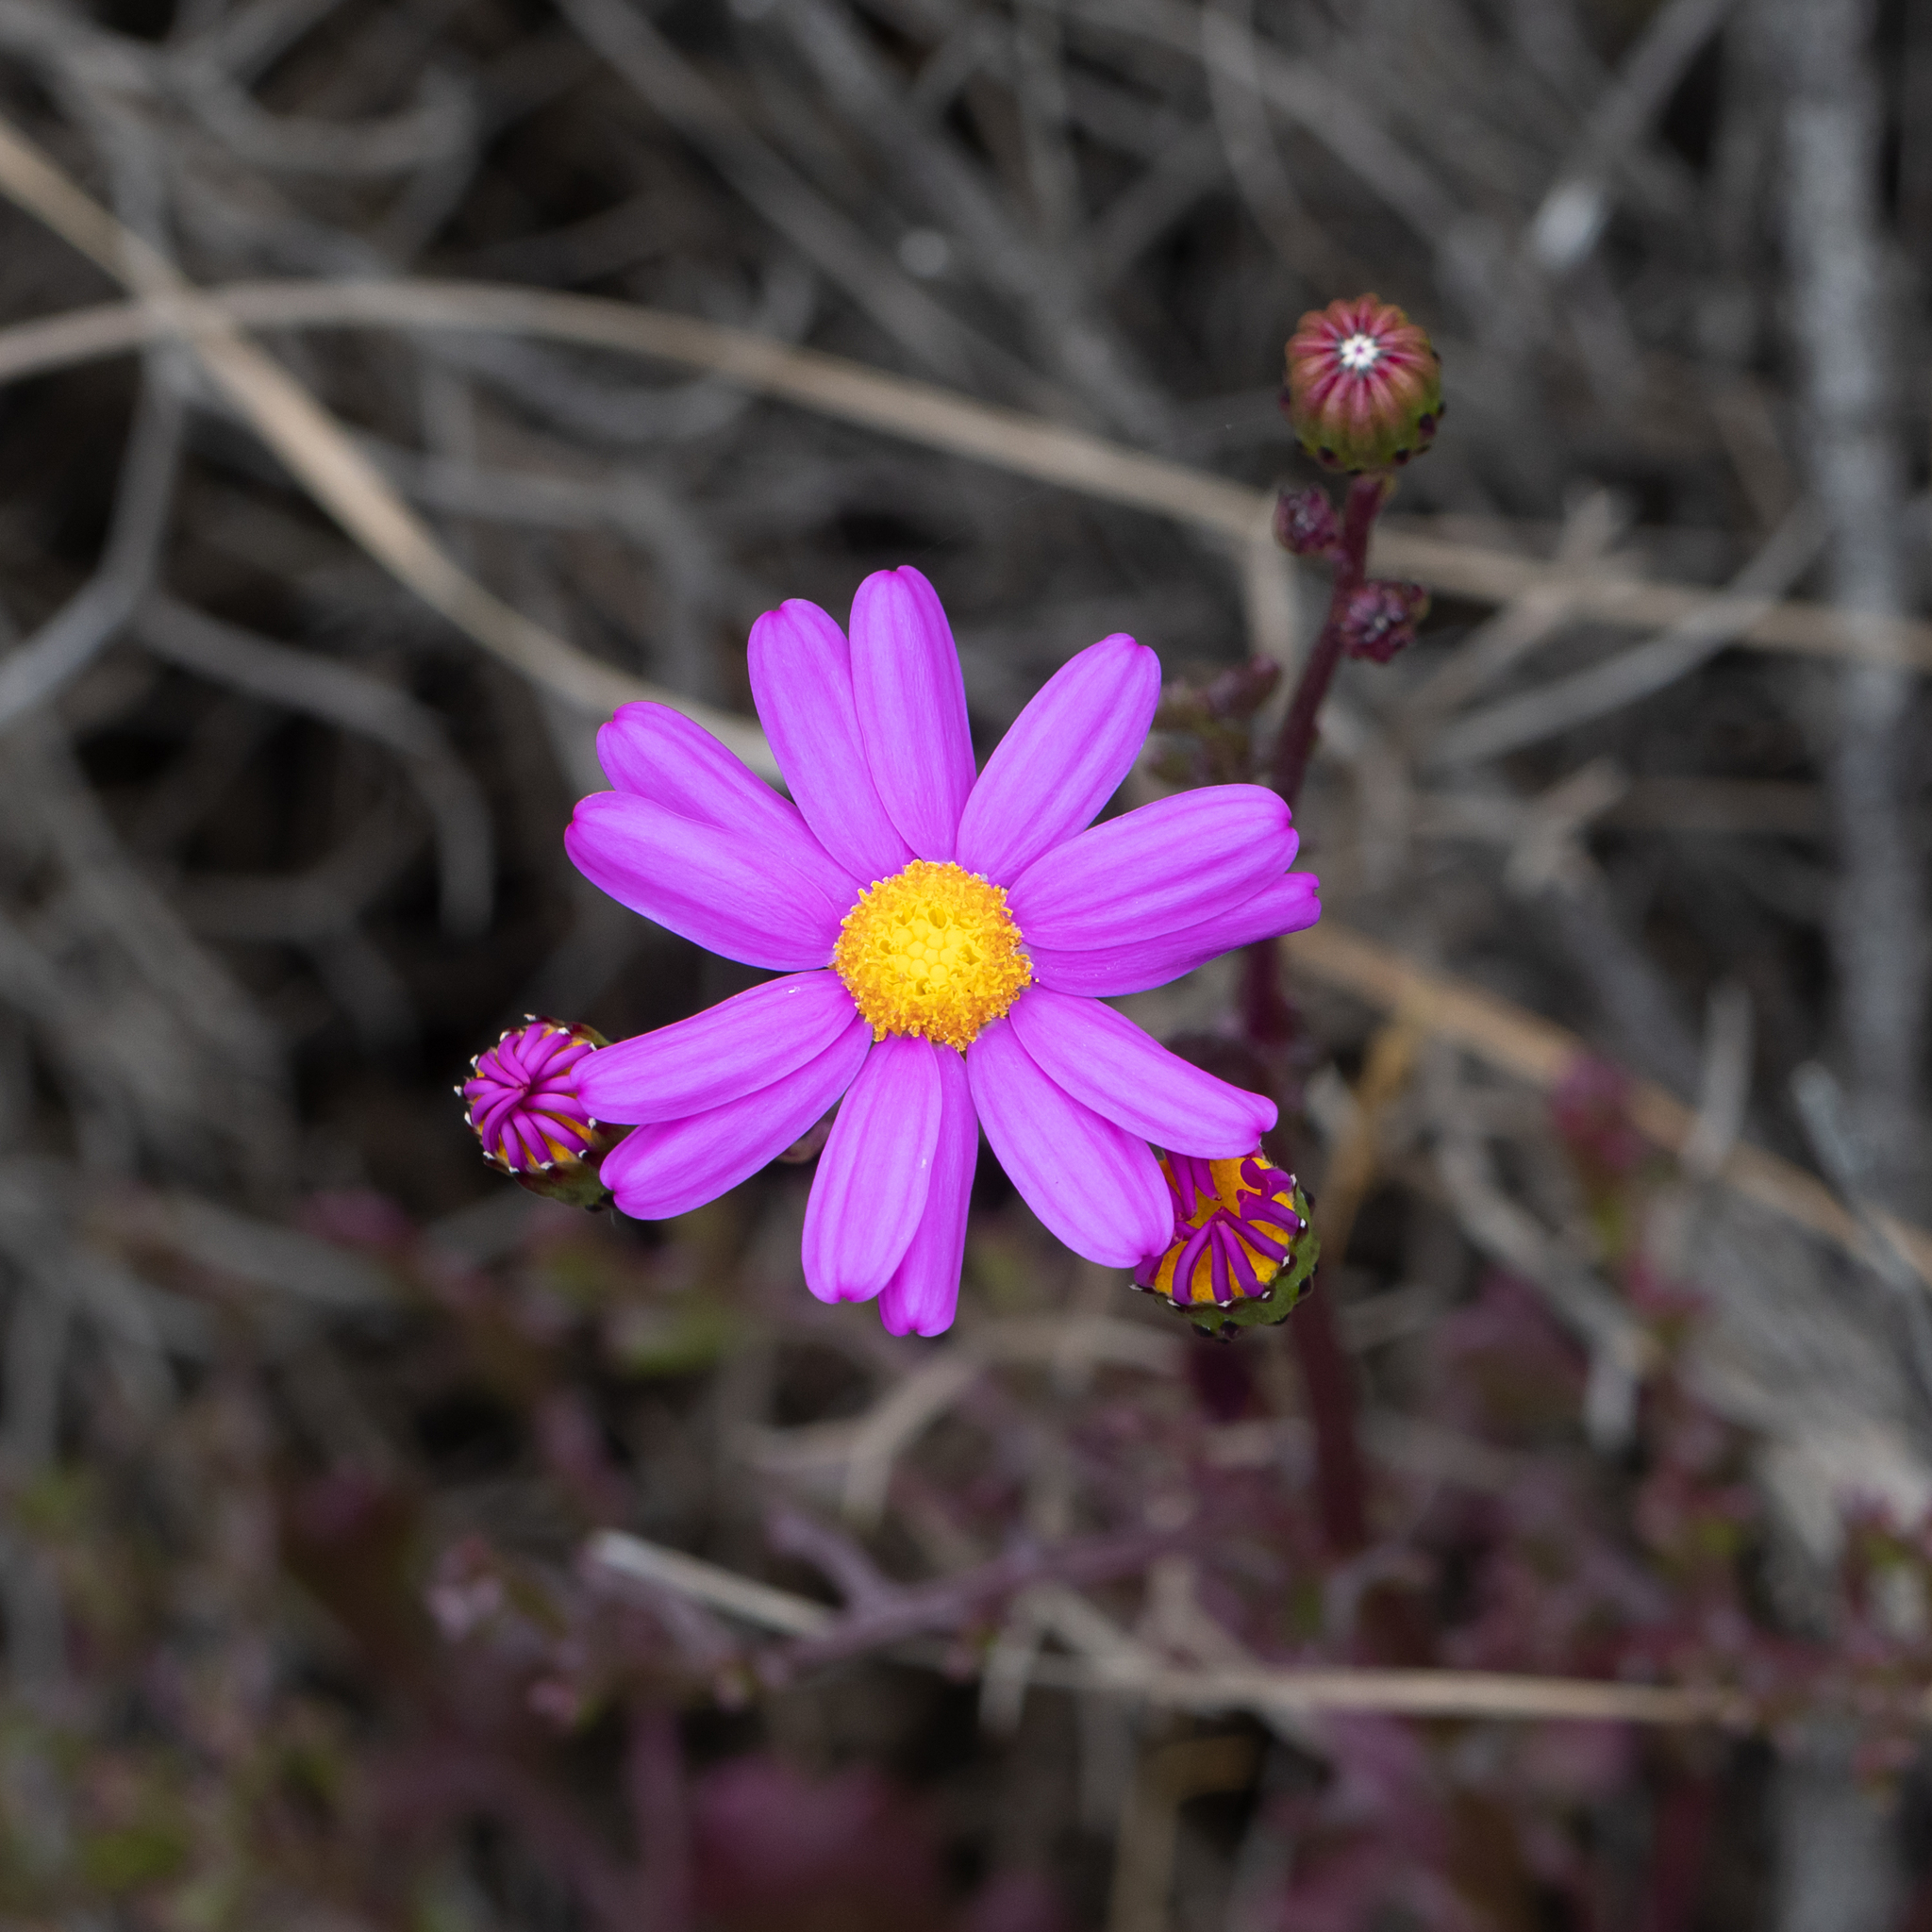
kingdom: Plantae
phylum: Tracheophyta
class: Magnoliopsida
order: Asterales
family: Asteraceae
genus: Senecio
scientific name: Senecio elegans
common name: Purple groundsel
